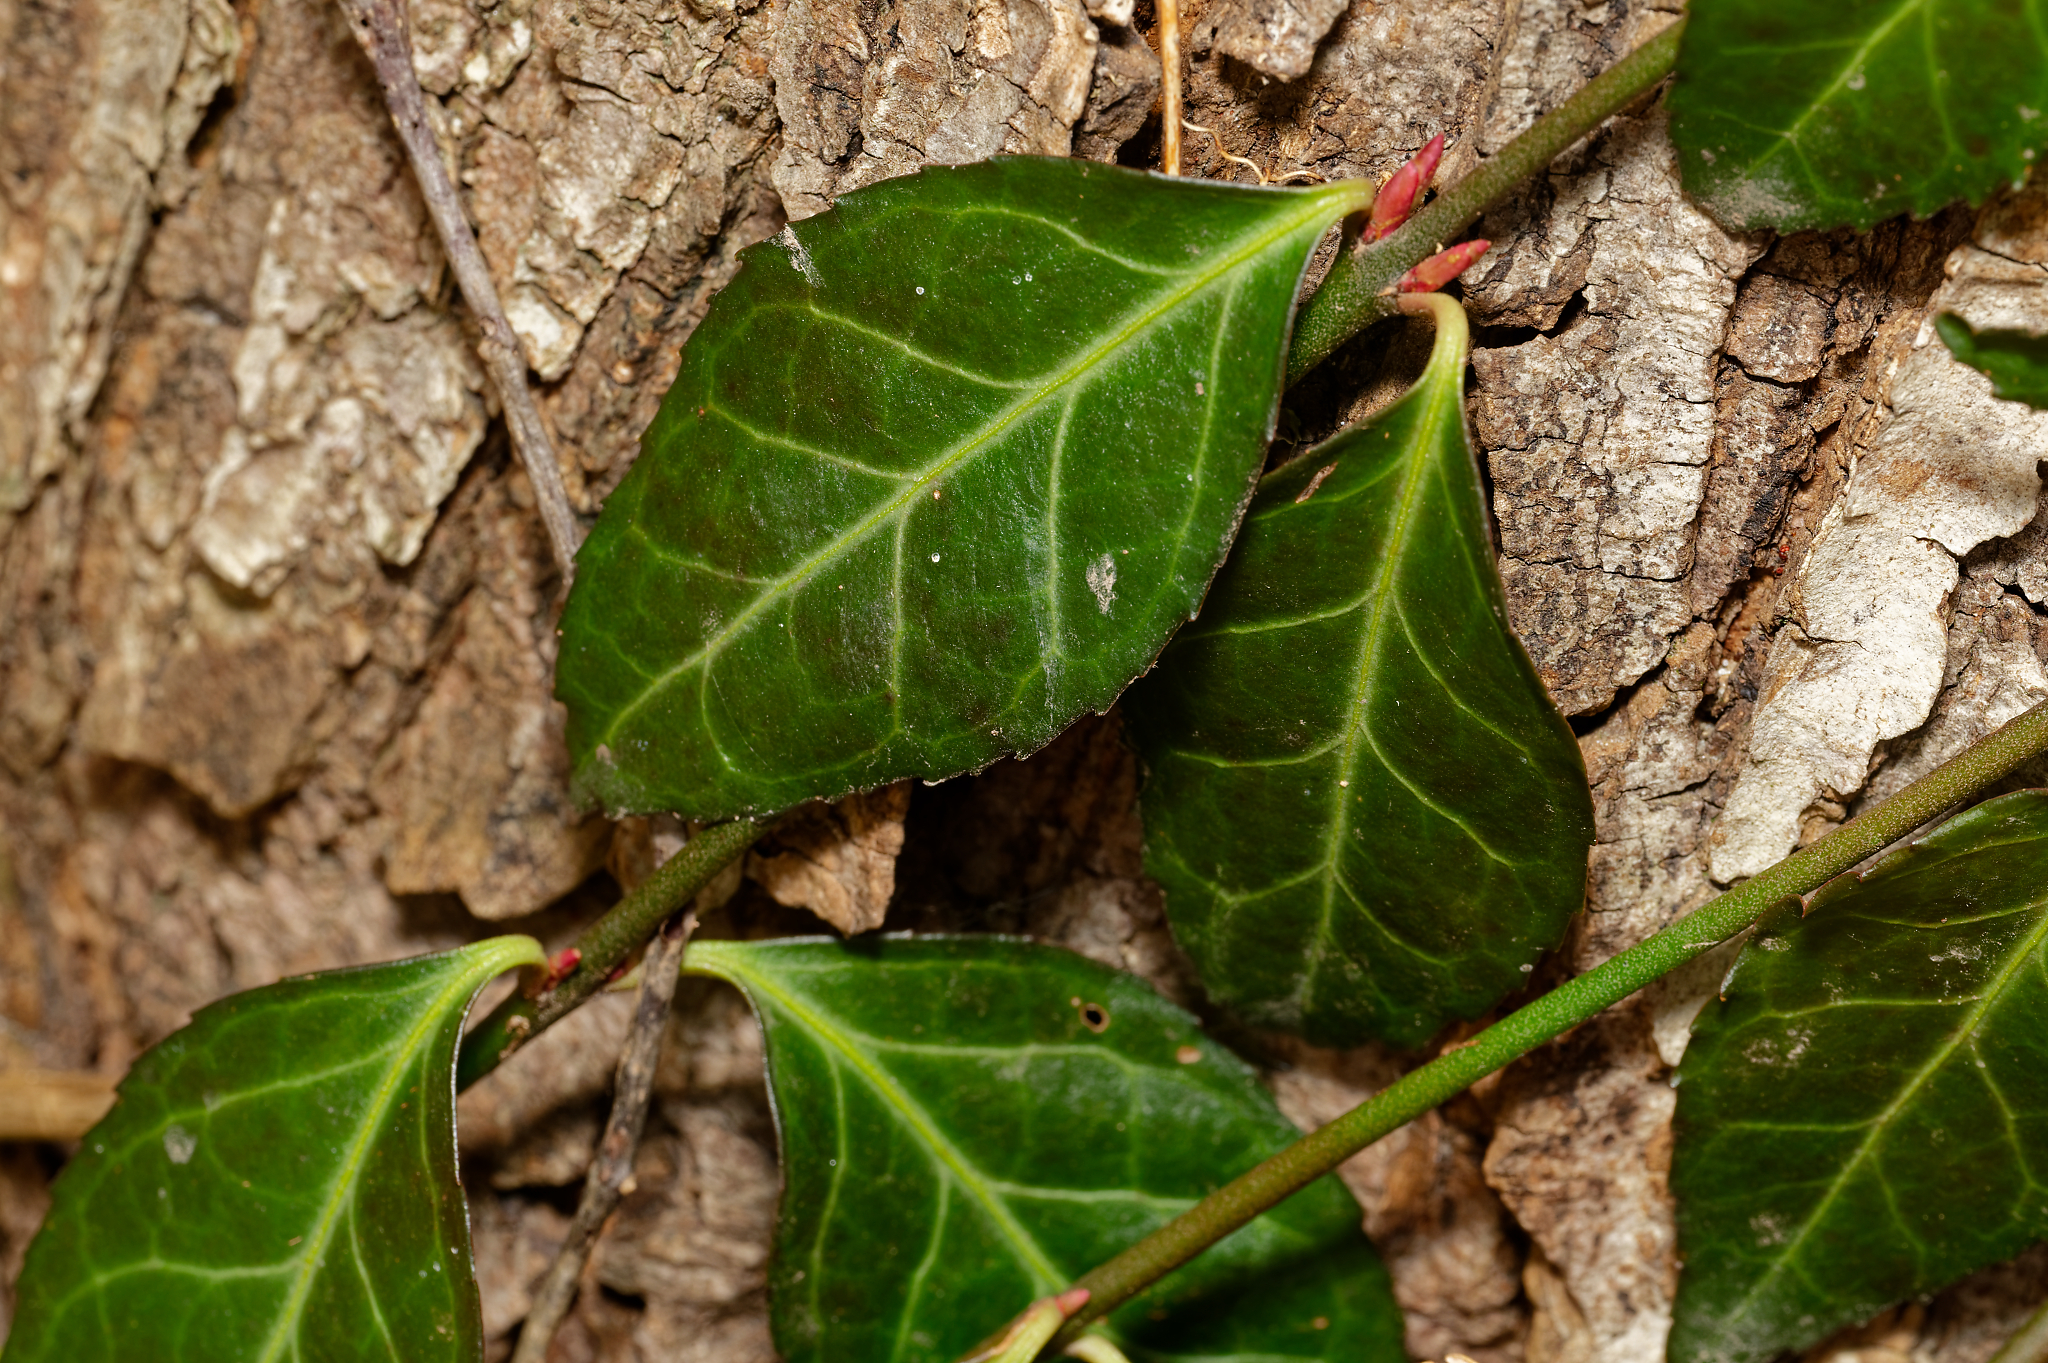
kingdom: Plantae
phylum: Tracheophyta
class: Magnoliopsida
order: Celastrales
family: Celastraceae
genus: Euonymus
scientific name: Euonymus fortunei
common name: Climbing euonymus
